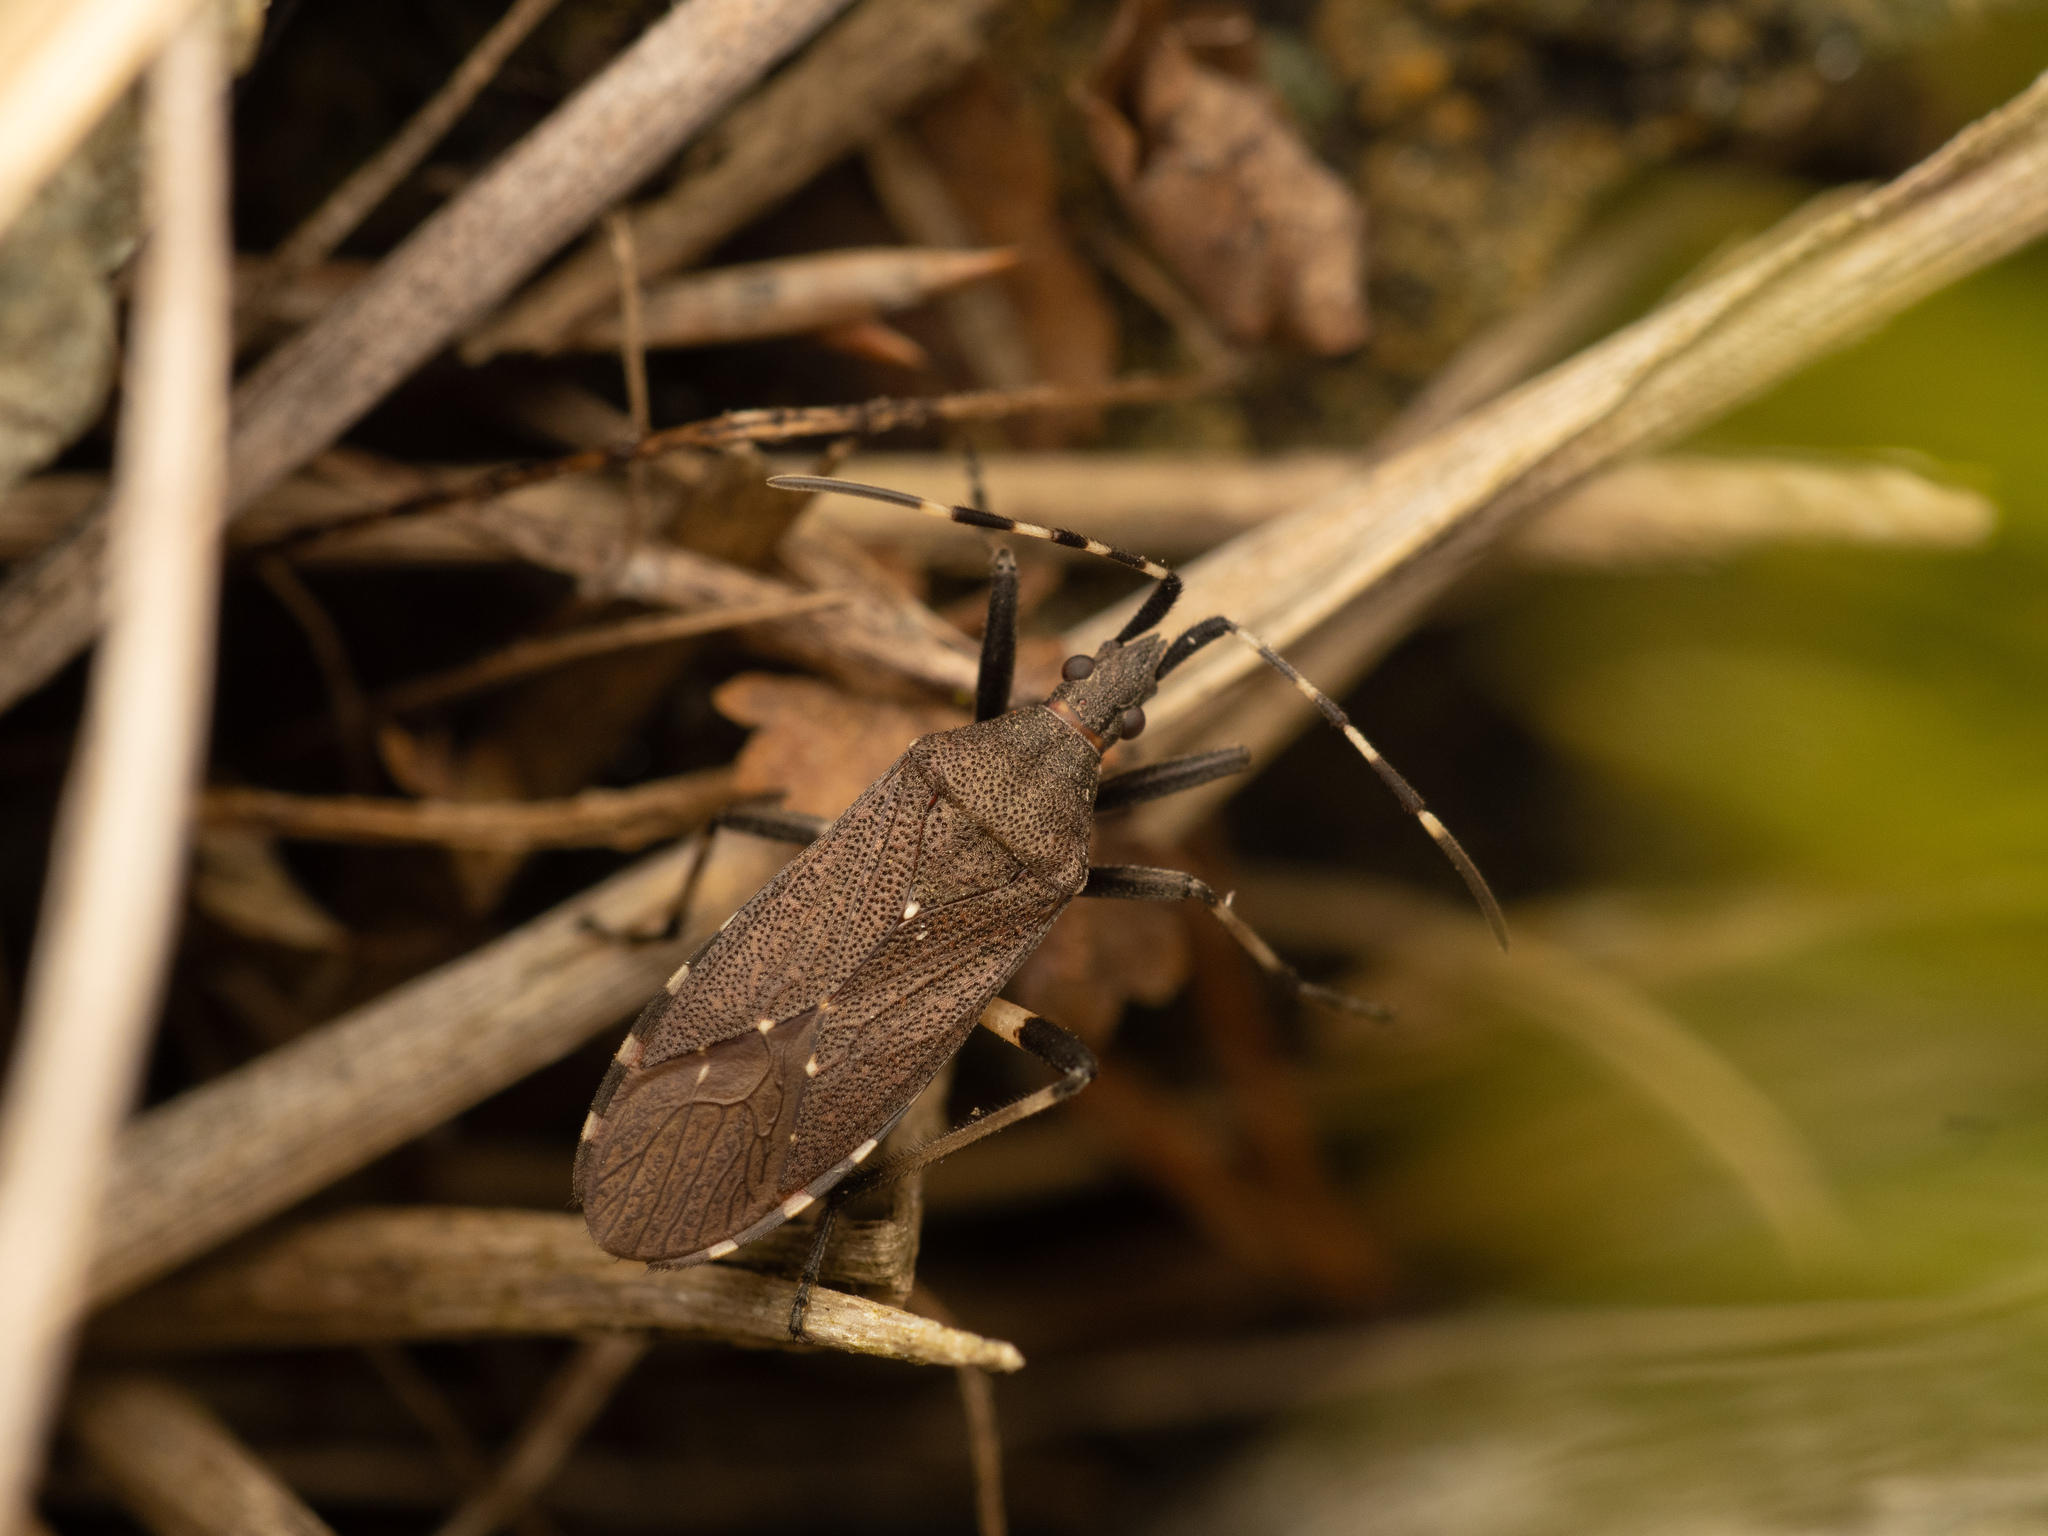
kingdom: Animalia
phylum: Arthropoda
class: Insecta
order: Hemiptera
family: Stenocephalidae
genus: Dicranocephalus
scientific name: Dicranocephalus agilis
